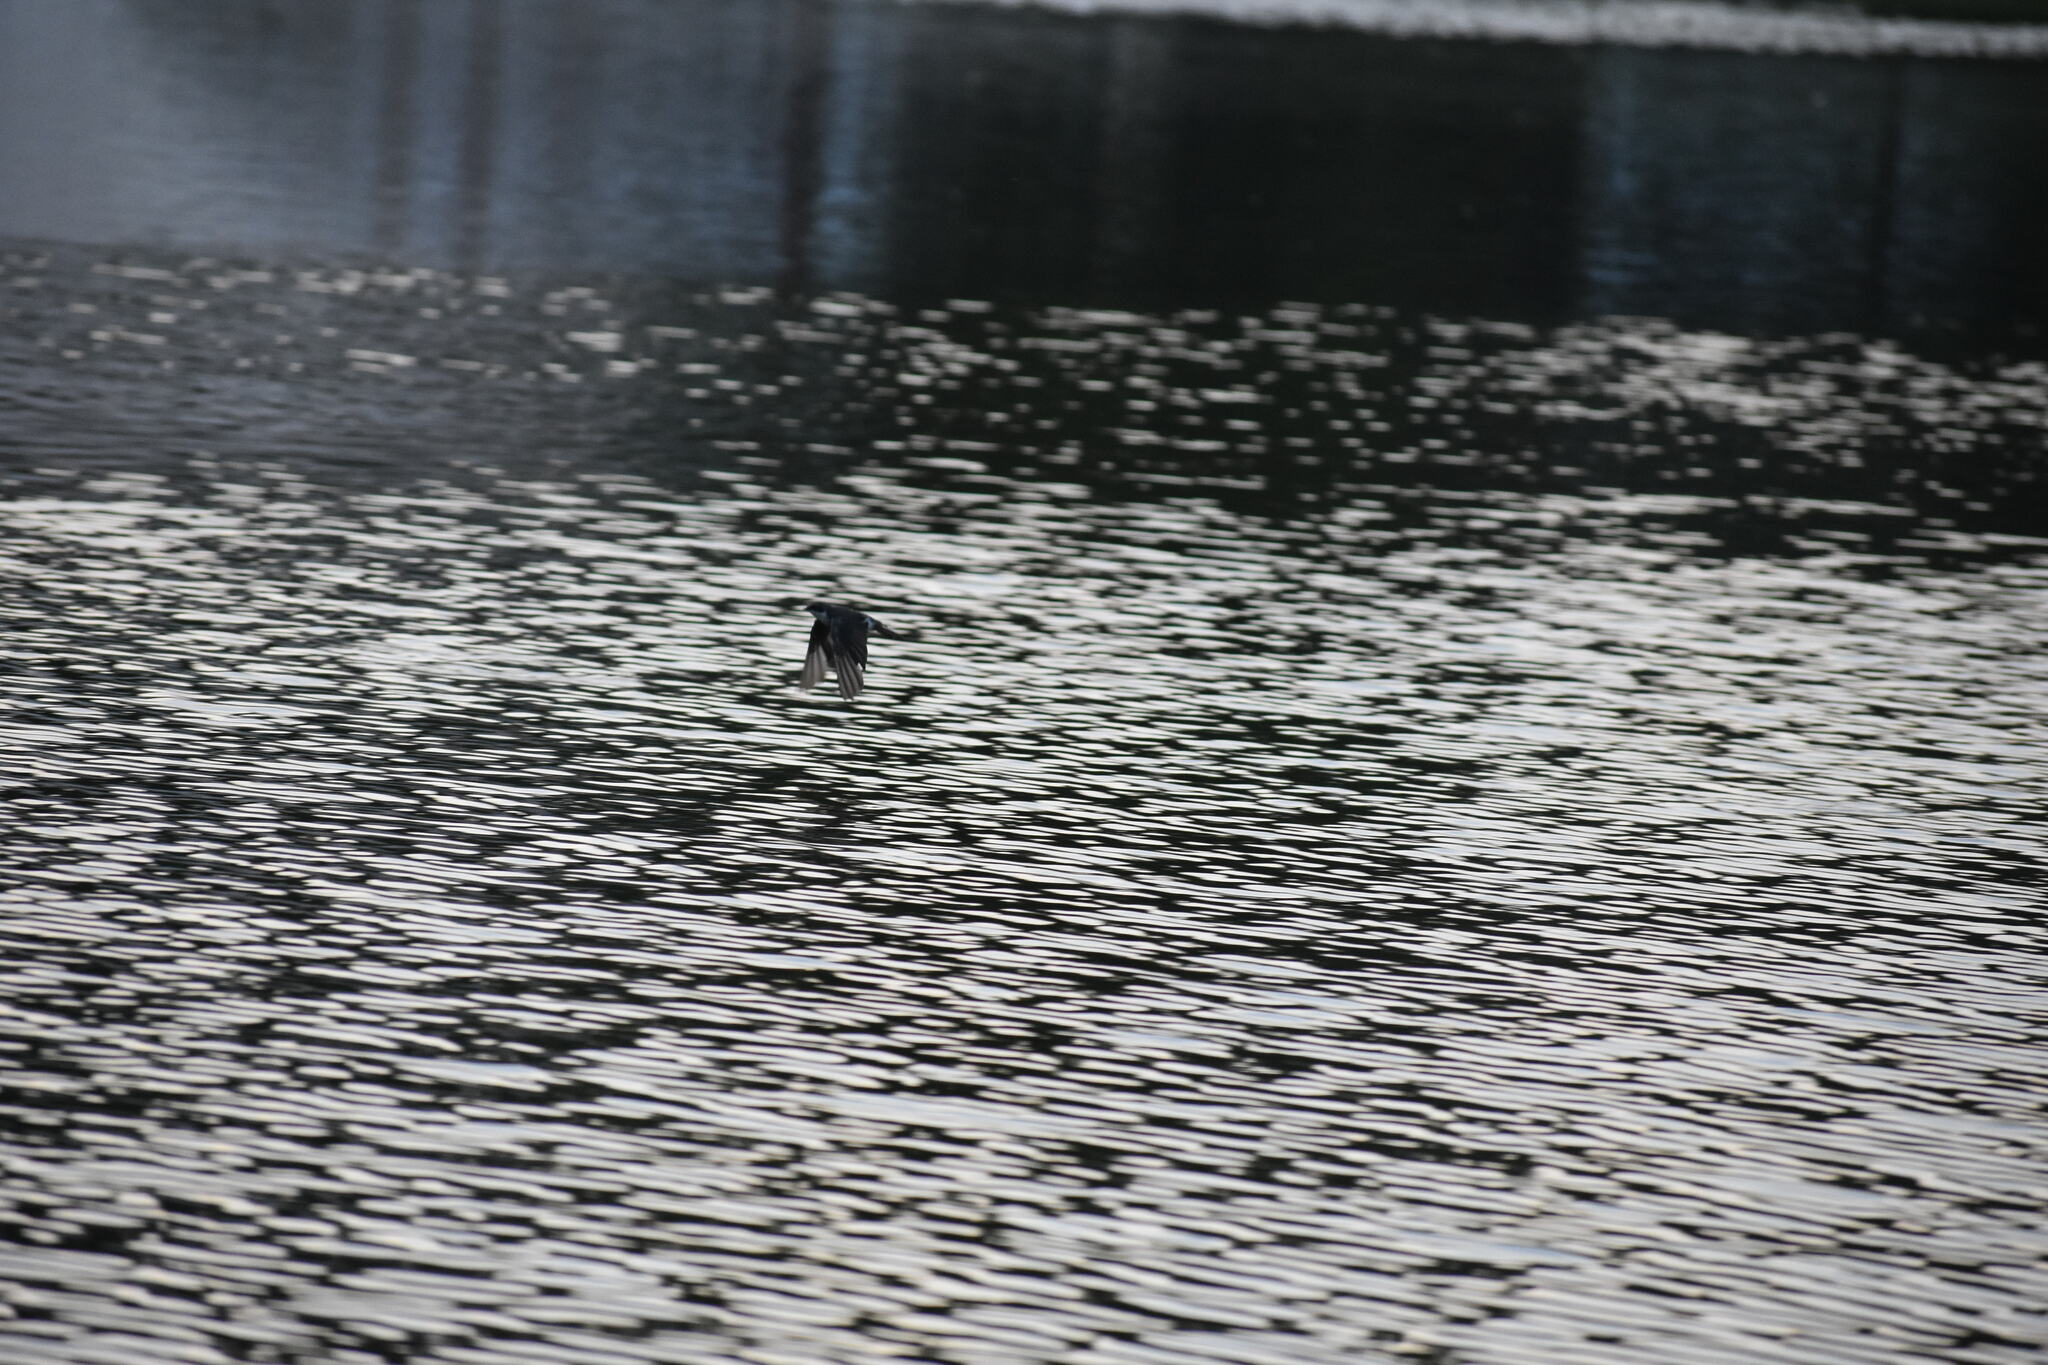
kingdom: Animalia
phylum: Chordata
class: Aves
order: Passeriformes
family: Hirundinidae
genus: Tachycineta
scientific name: Tachycineta bicolor
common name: Tree swallow
